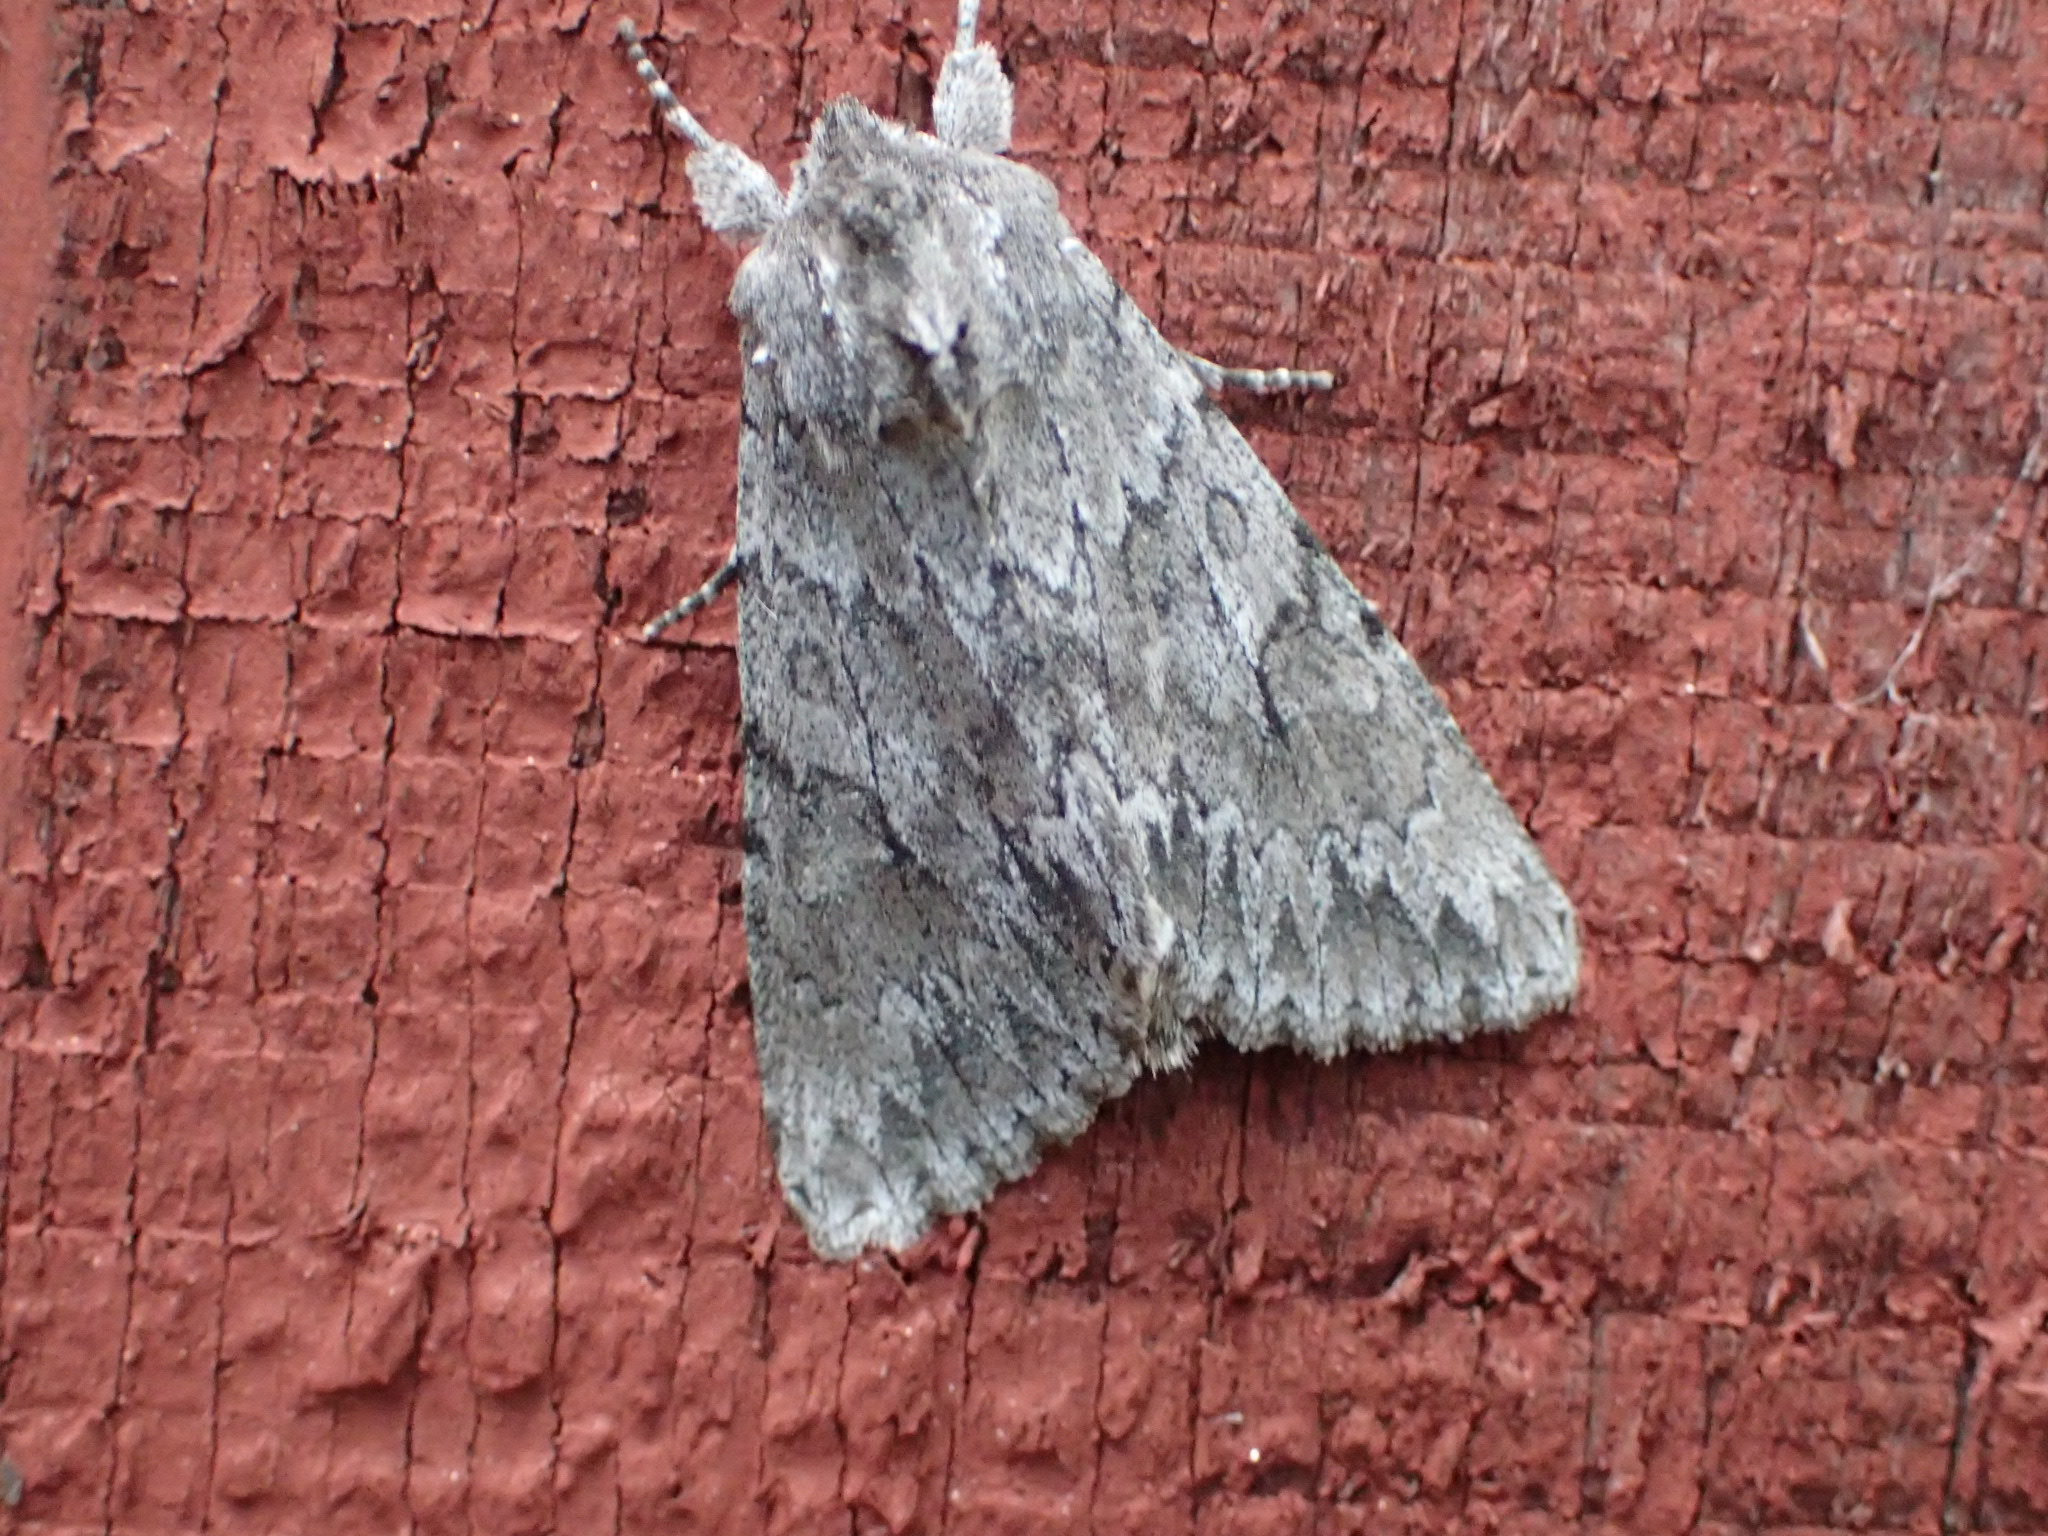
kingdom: Animalia
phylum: Arthropoda
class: Insecta
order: Lepidoptera
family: Noctuidae
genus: Andropolia
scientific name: Andropolia contacta
